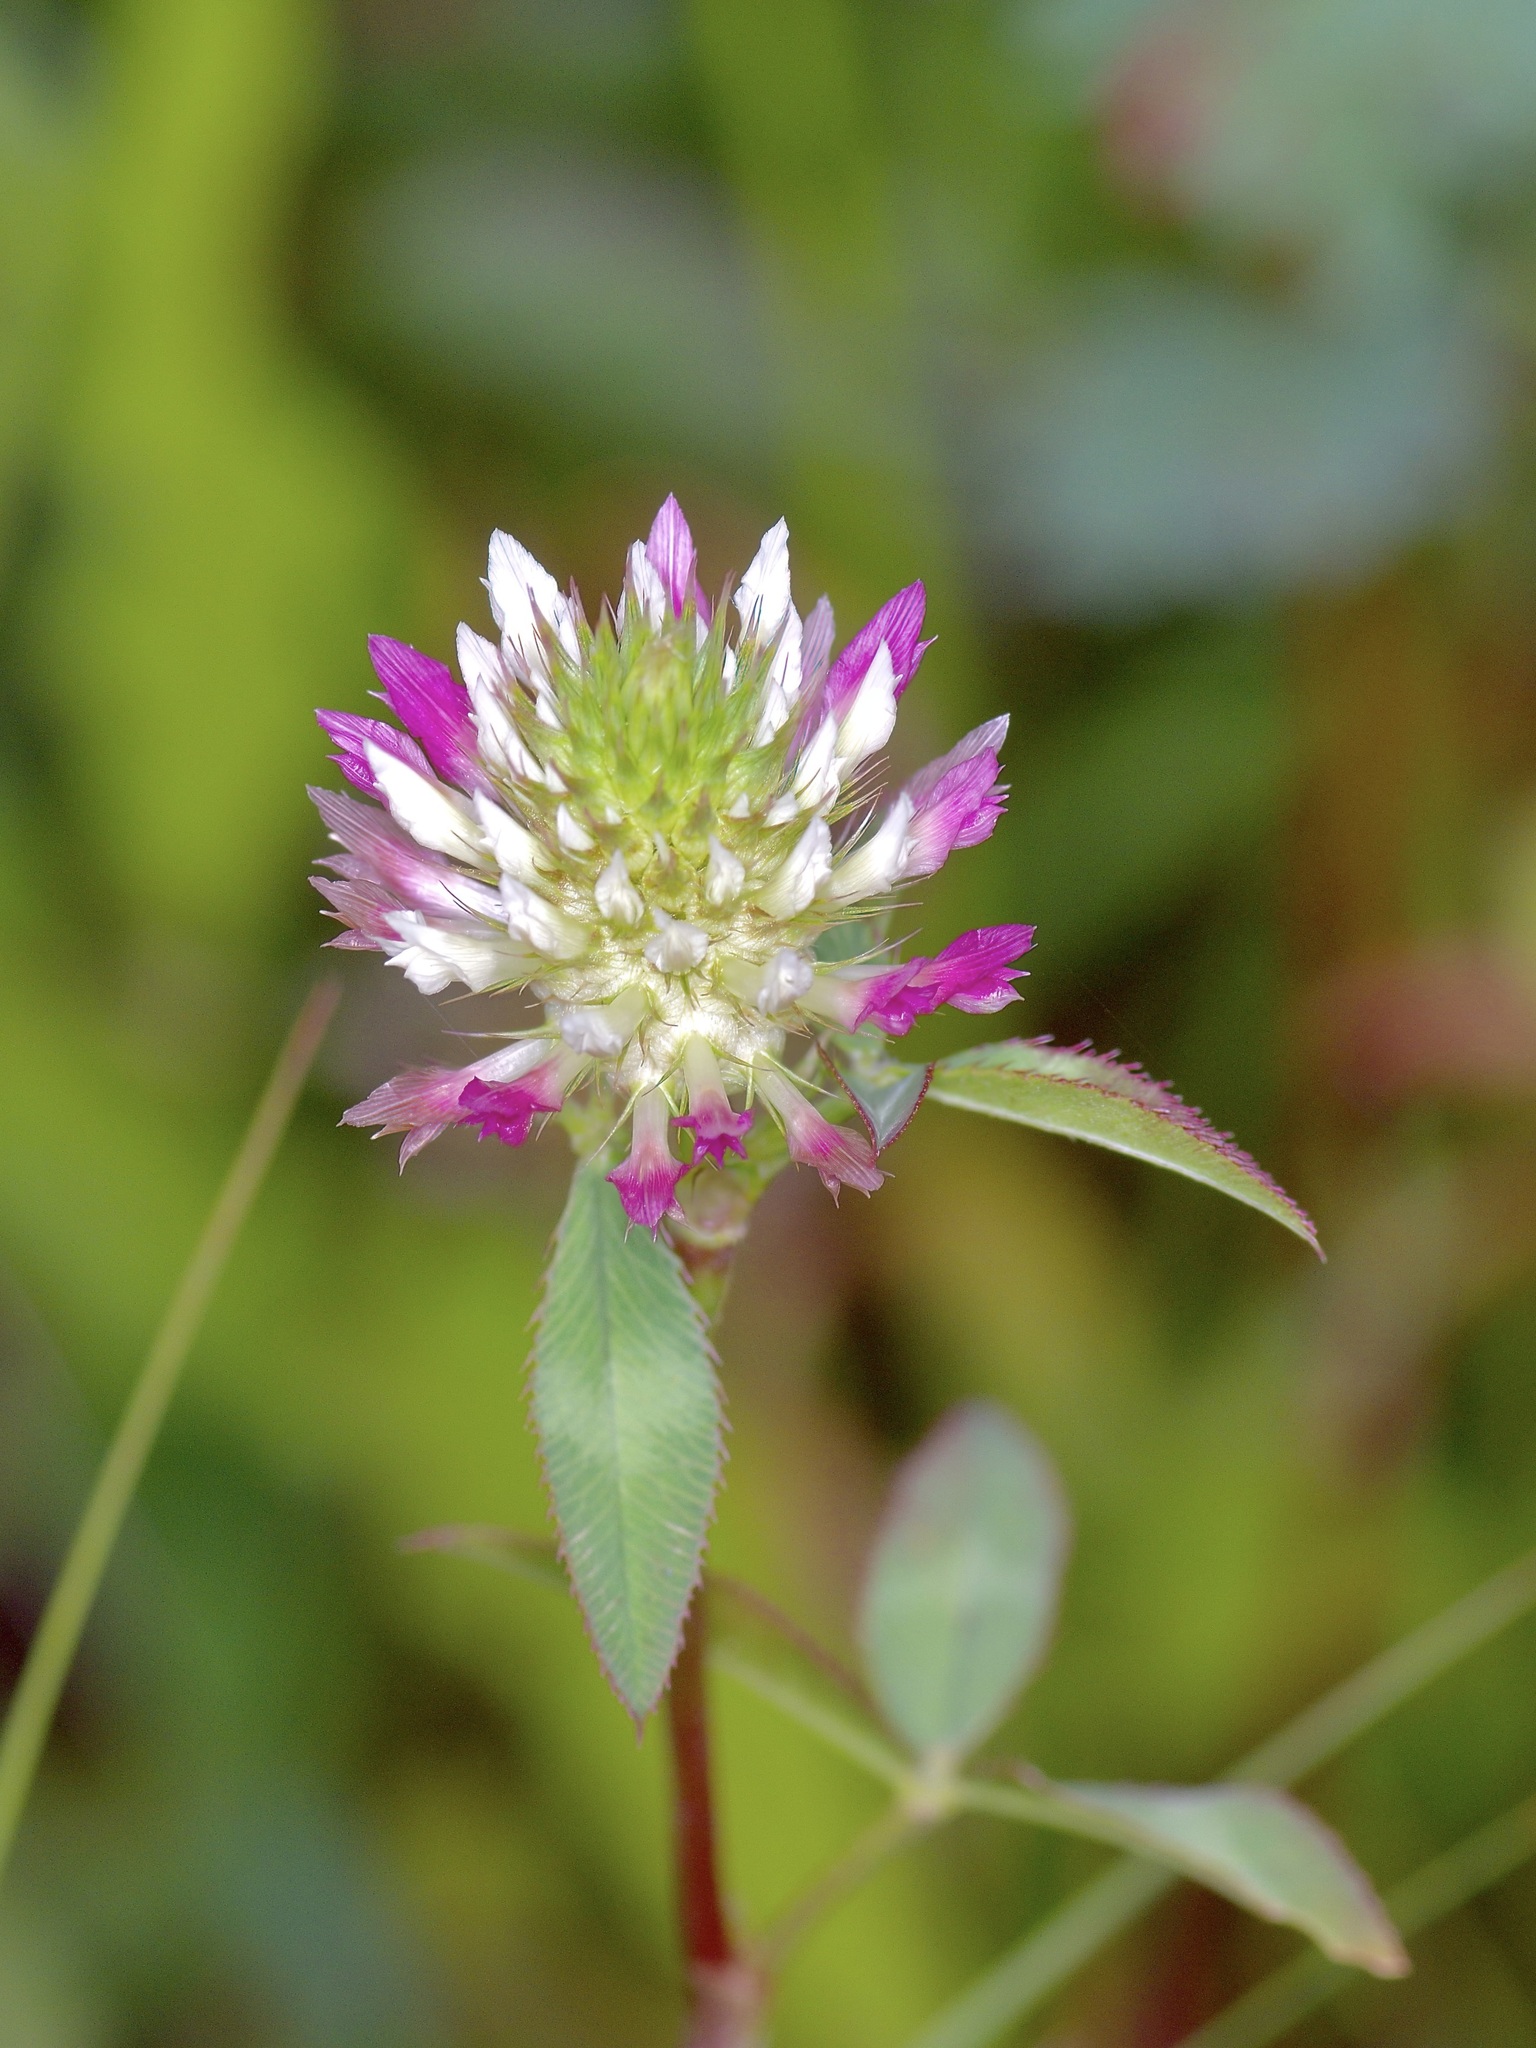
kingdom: Plantae
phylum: Tracheophyta
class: Magnoliopsida
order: Fabales
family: Fabaceae
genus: Trifolium
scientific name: Trifolium vesiculosum
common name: Arrowleaf clover
